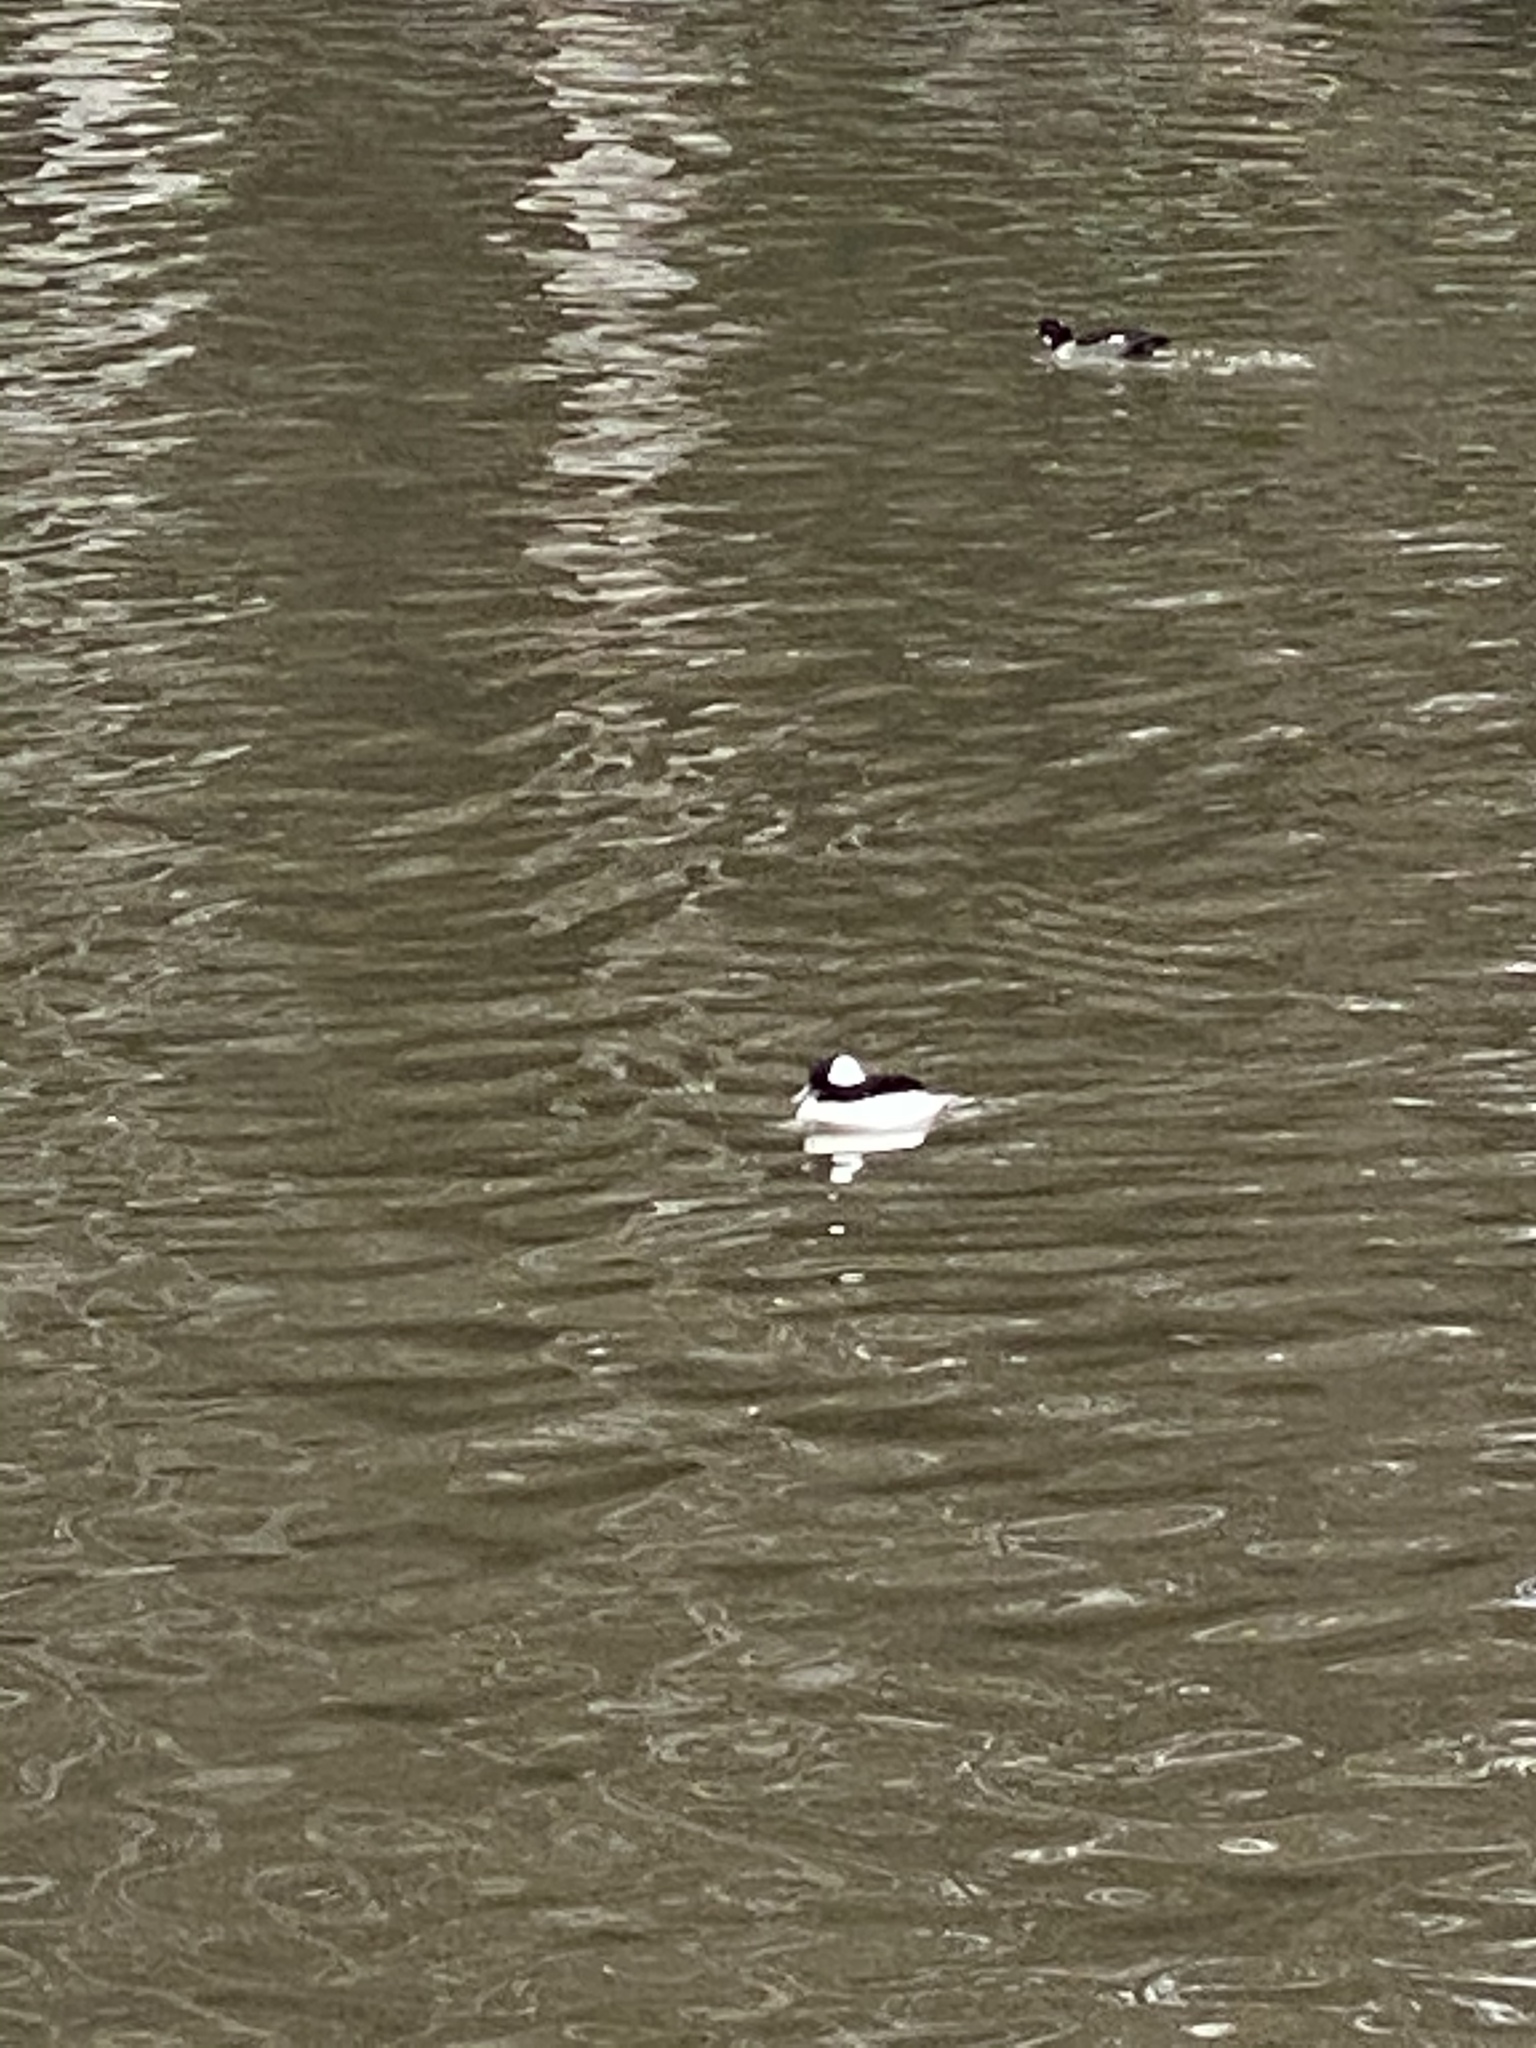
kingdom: Animalia
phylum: Chordata
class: Aves
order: Anseriformes
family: Anatidae
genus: Bucephala
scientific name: Bucephala albeola
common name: Bufflehead
